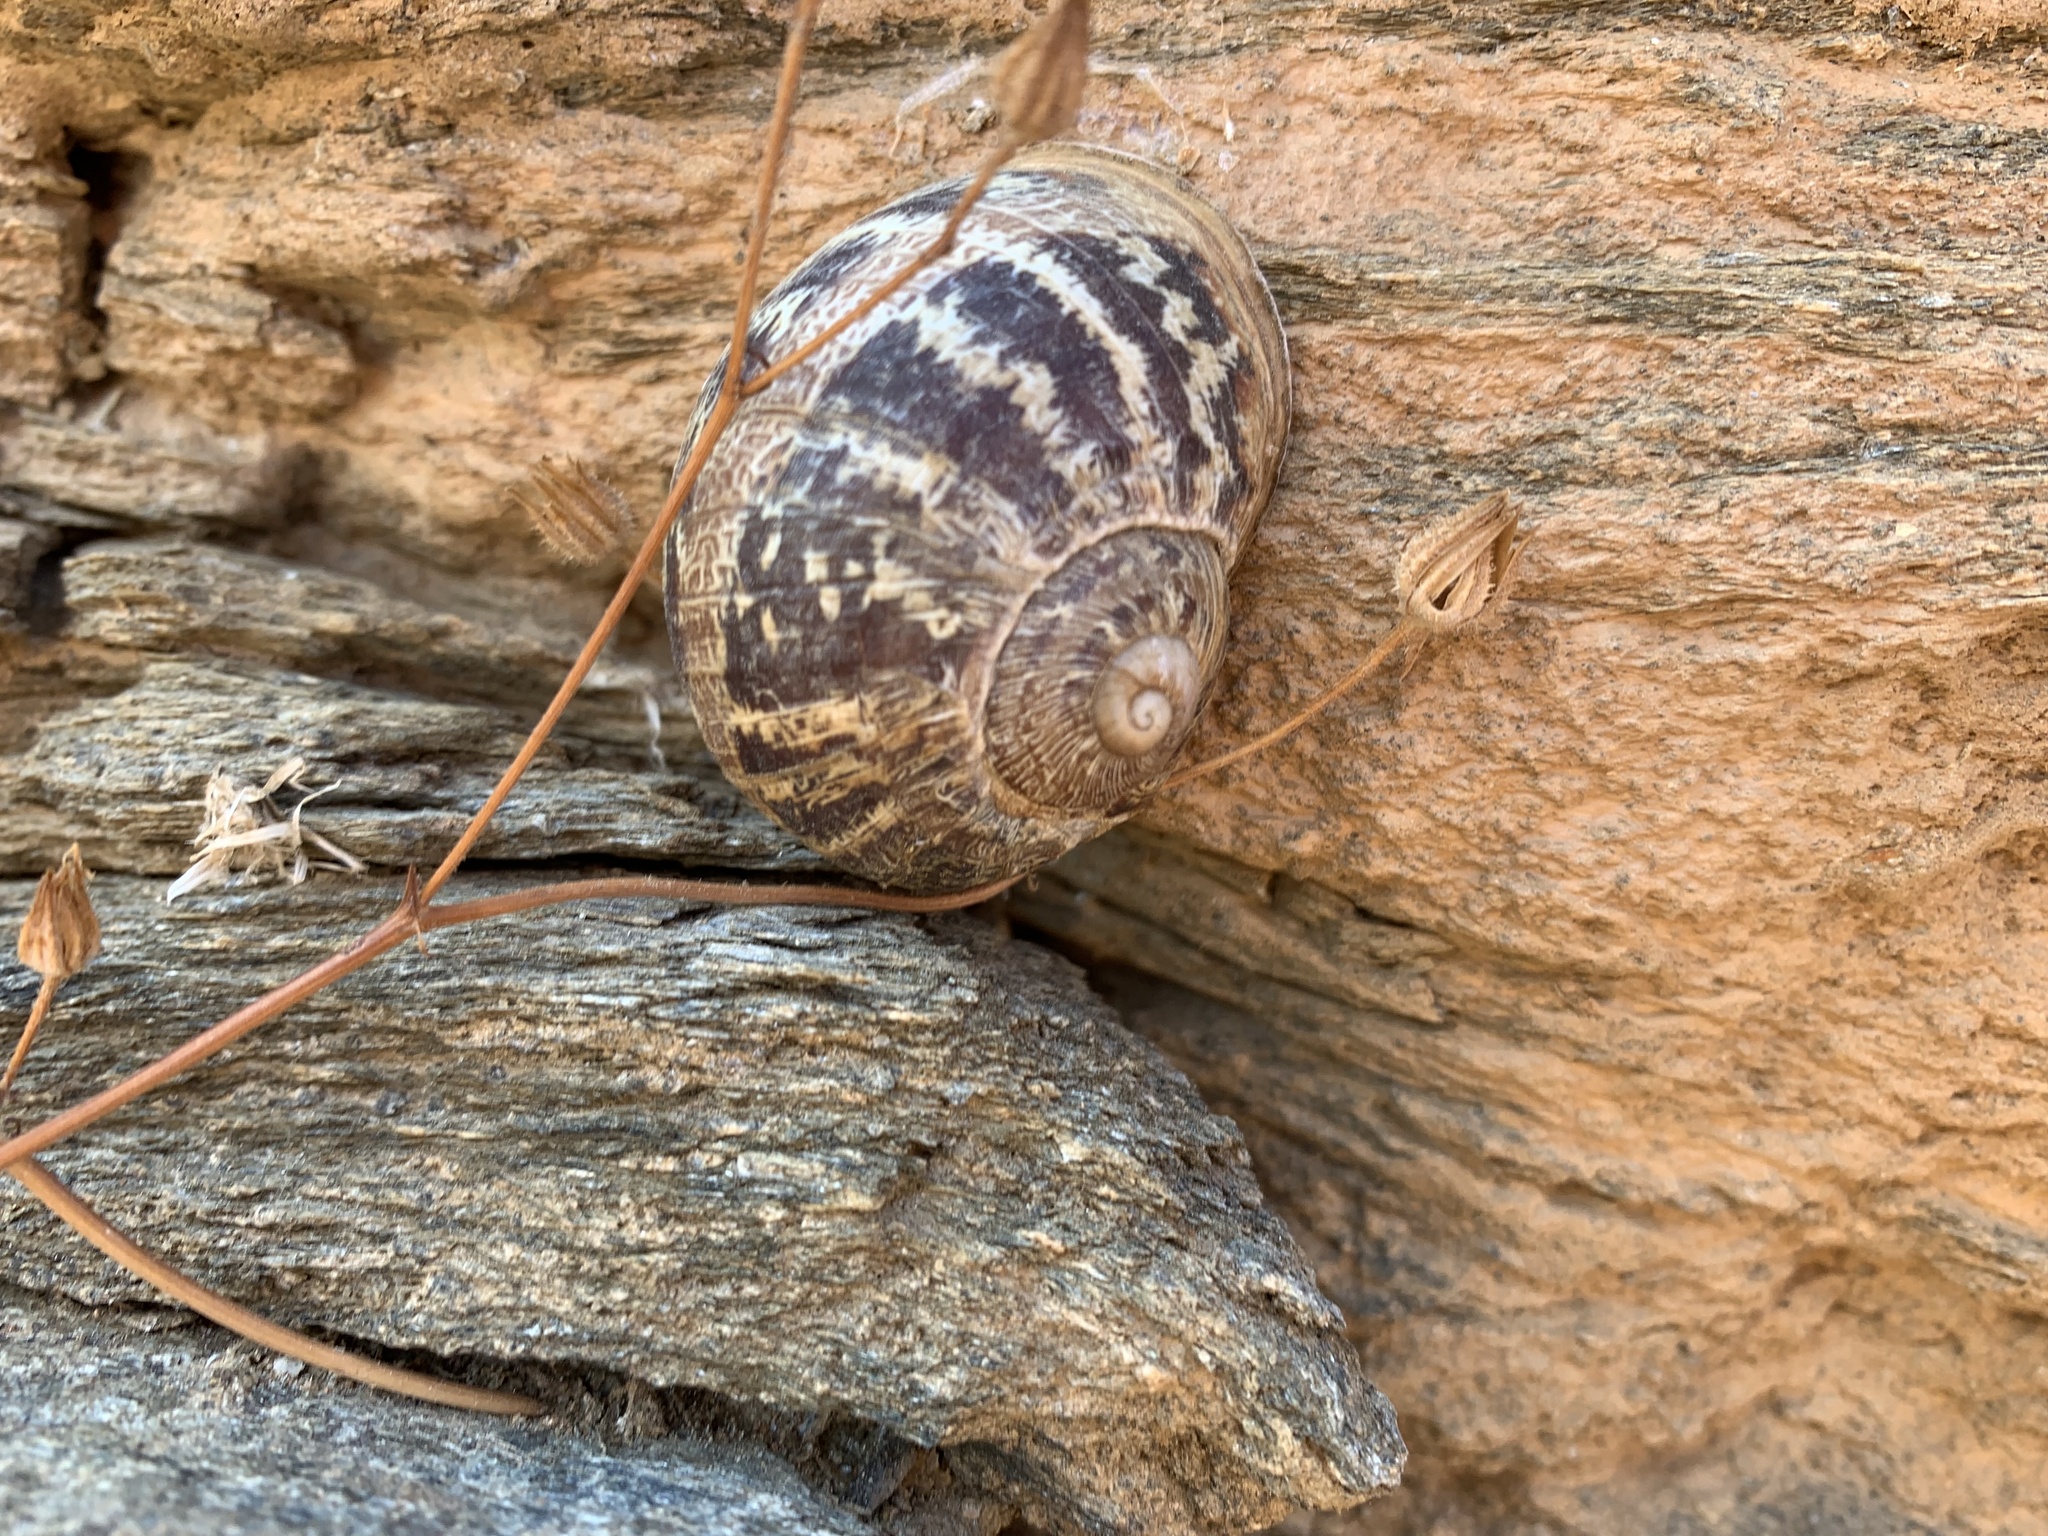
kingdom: Animalia
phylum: Mollusca
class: Gastropoda
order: Stylommatophora
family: Helicidae
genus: Cornu
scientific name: Cornu aspersum
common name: Brown garden snail
